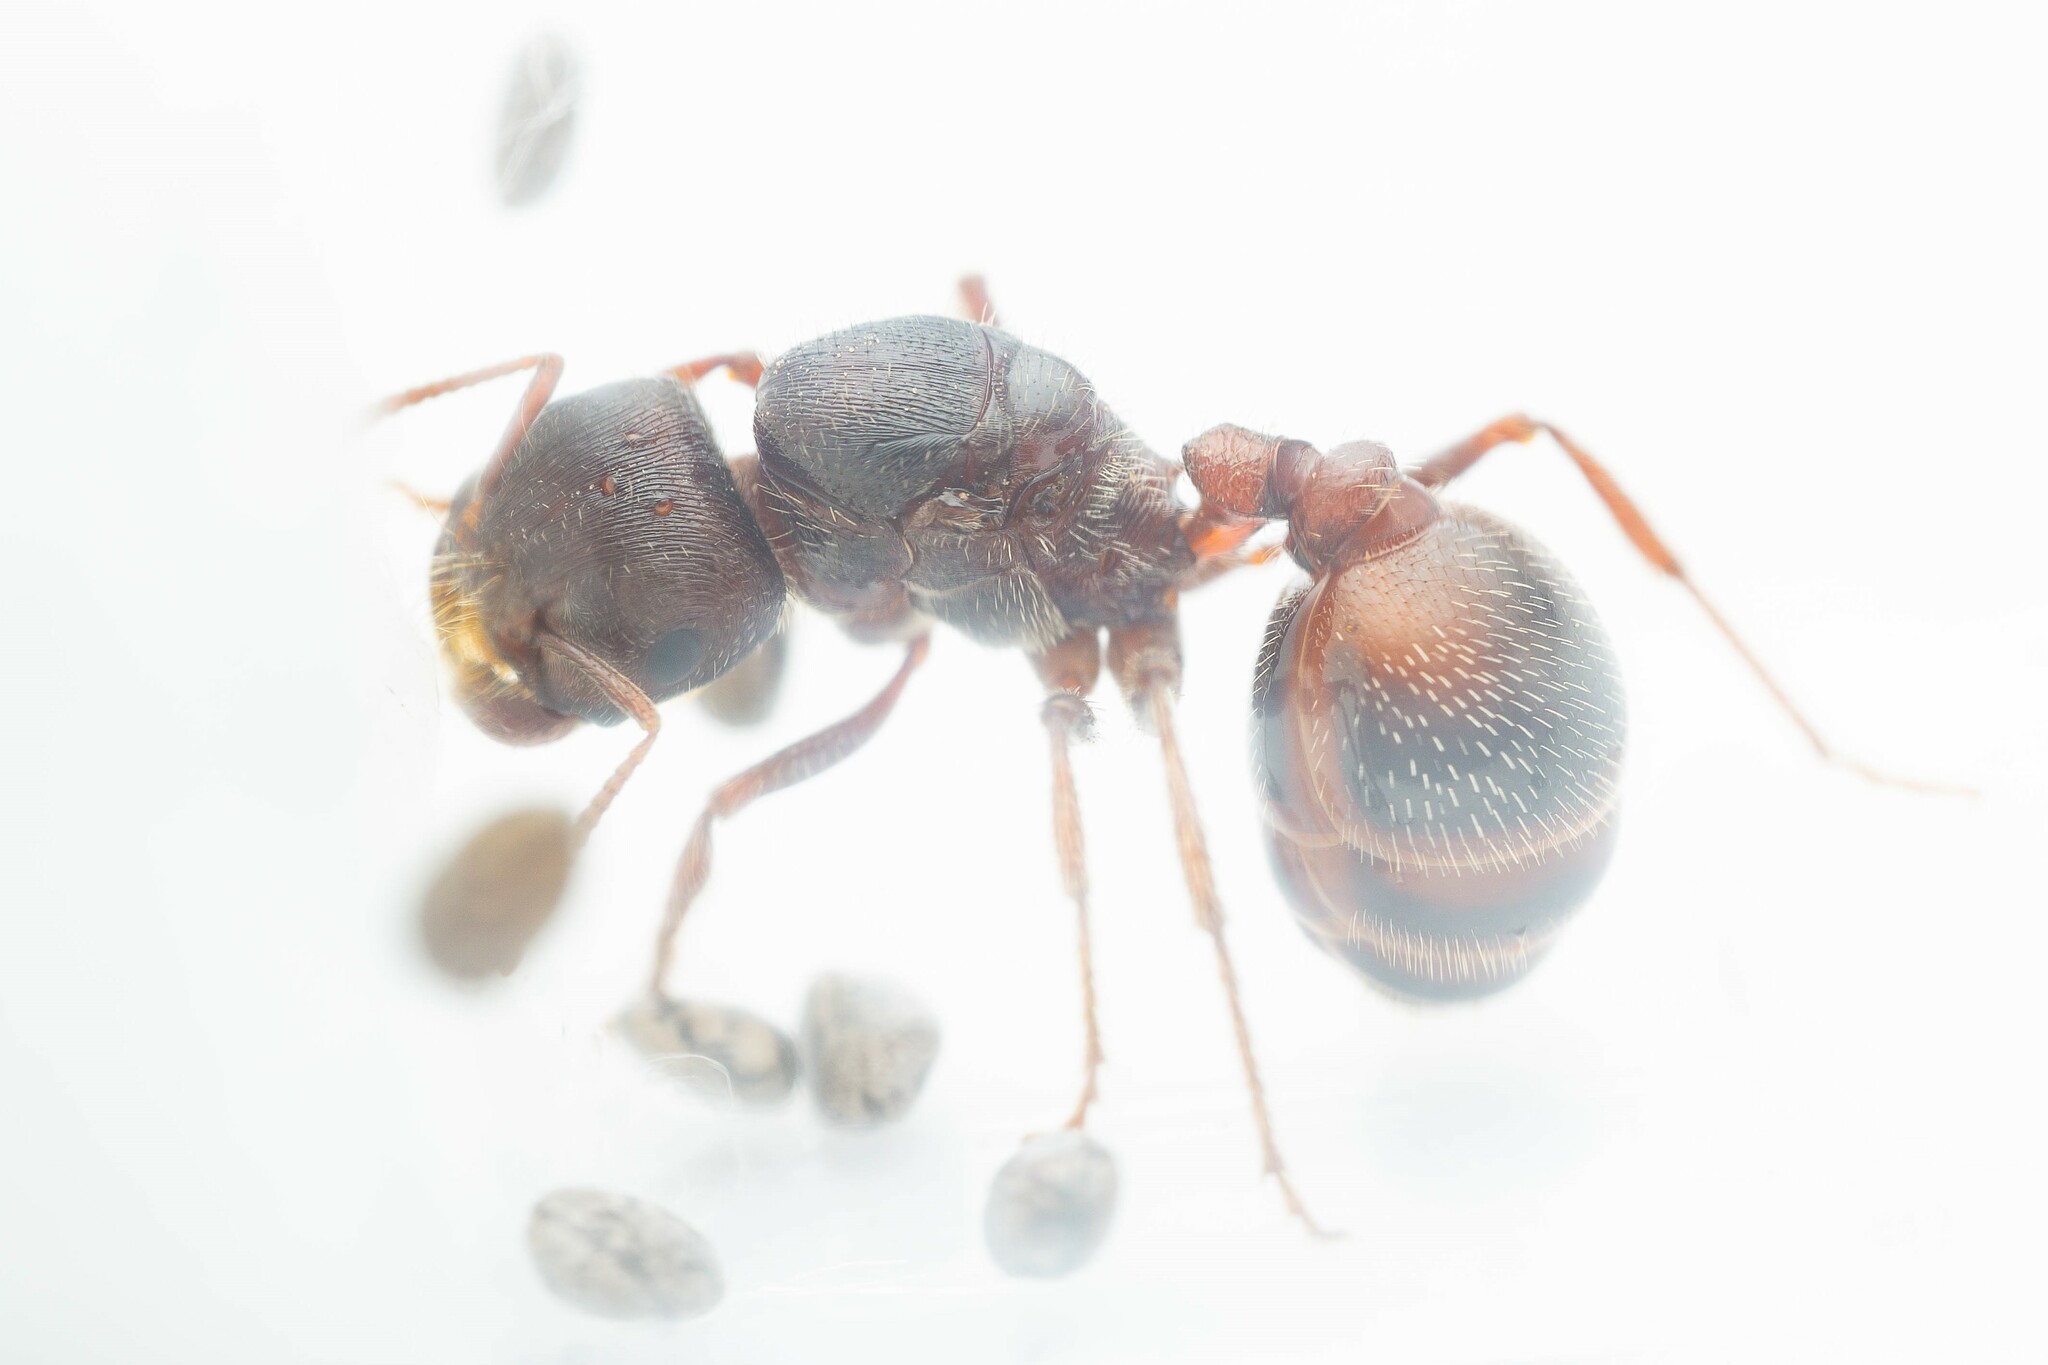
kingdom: Animalia
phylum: Arthropoda
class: Insecta
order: Hymenoptera
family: Formicidae
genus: Pogonomyrmex
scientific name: Pogonomyrmex rugosus
